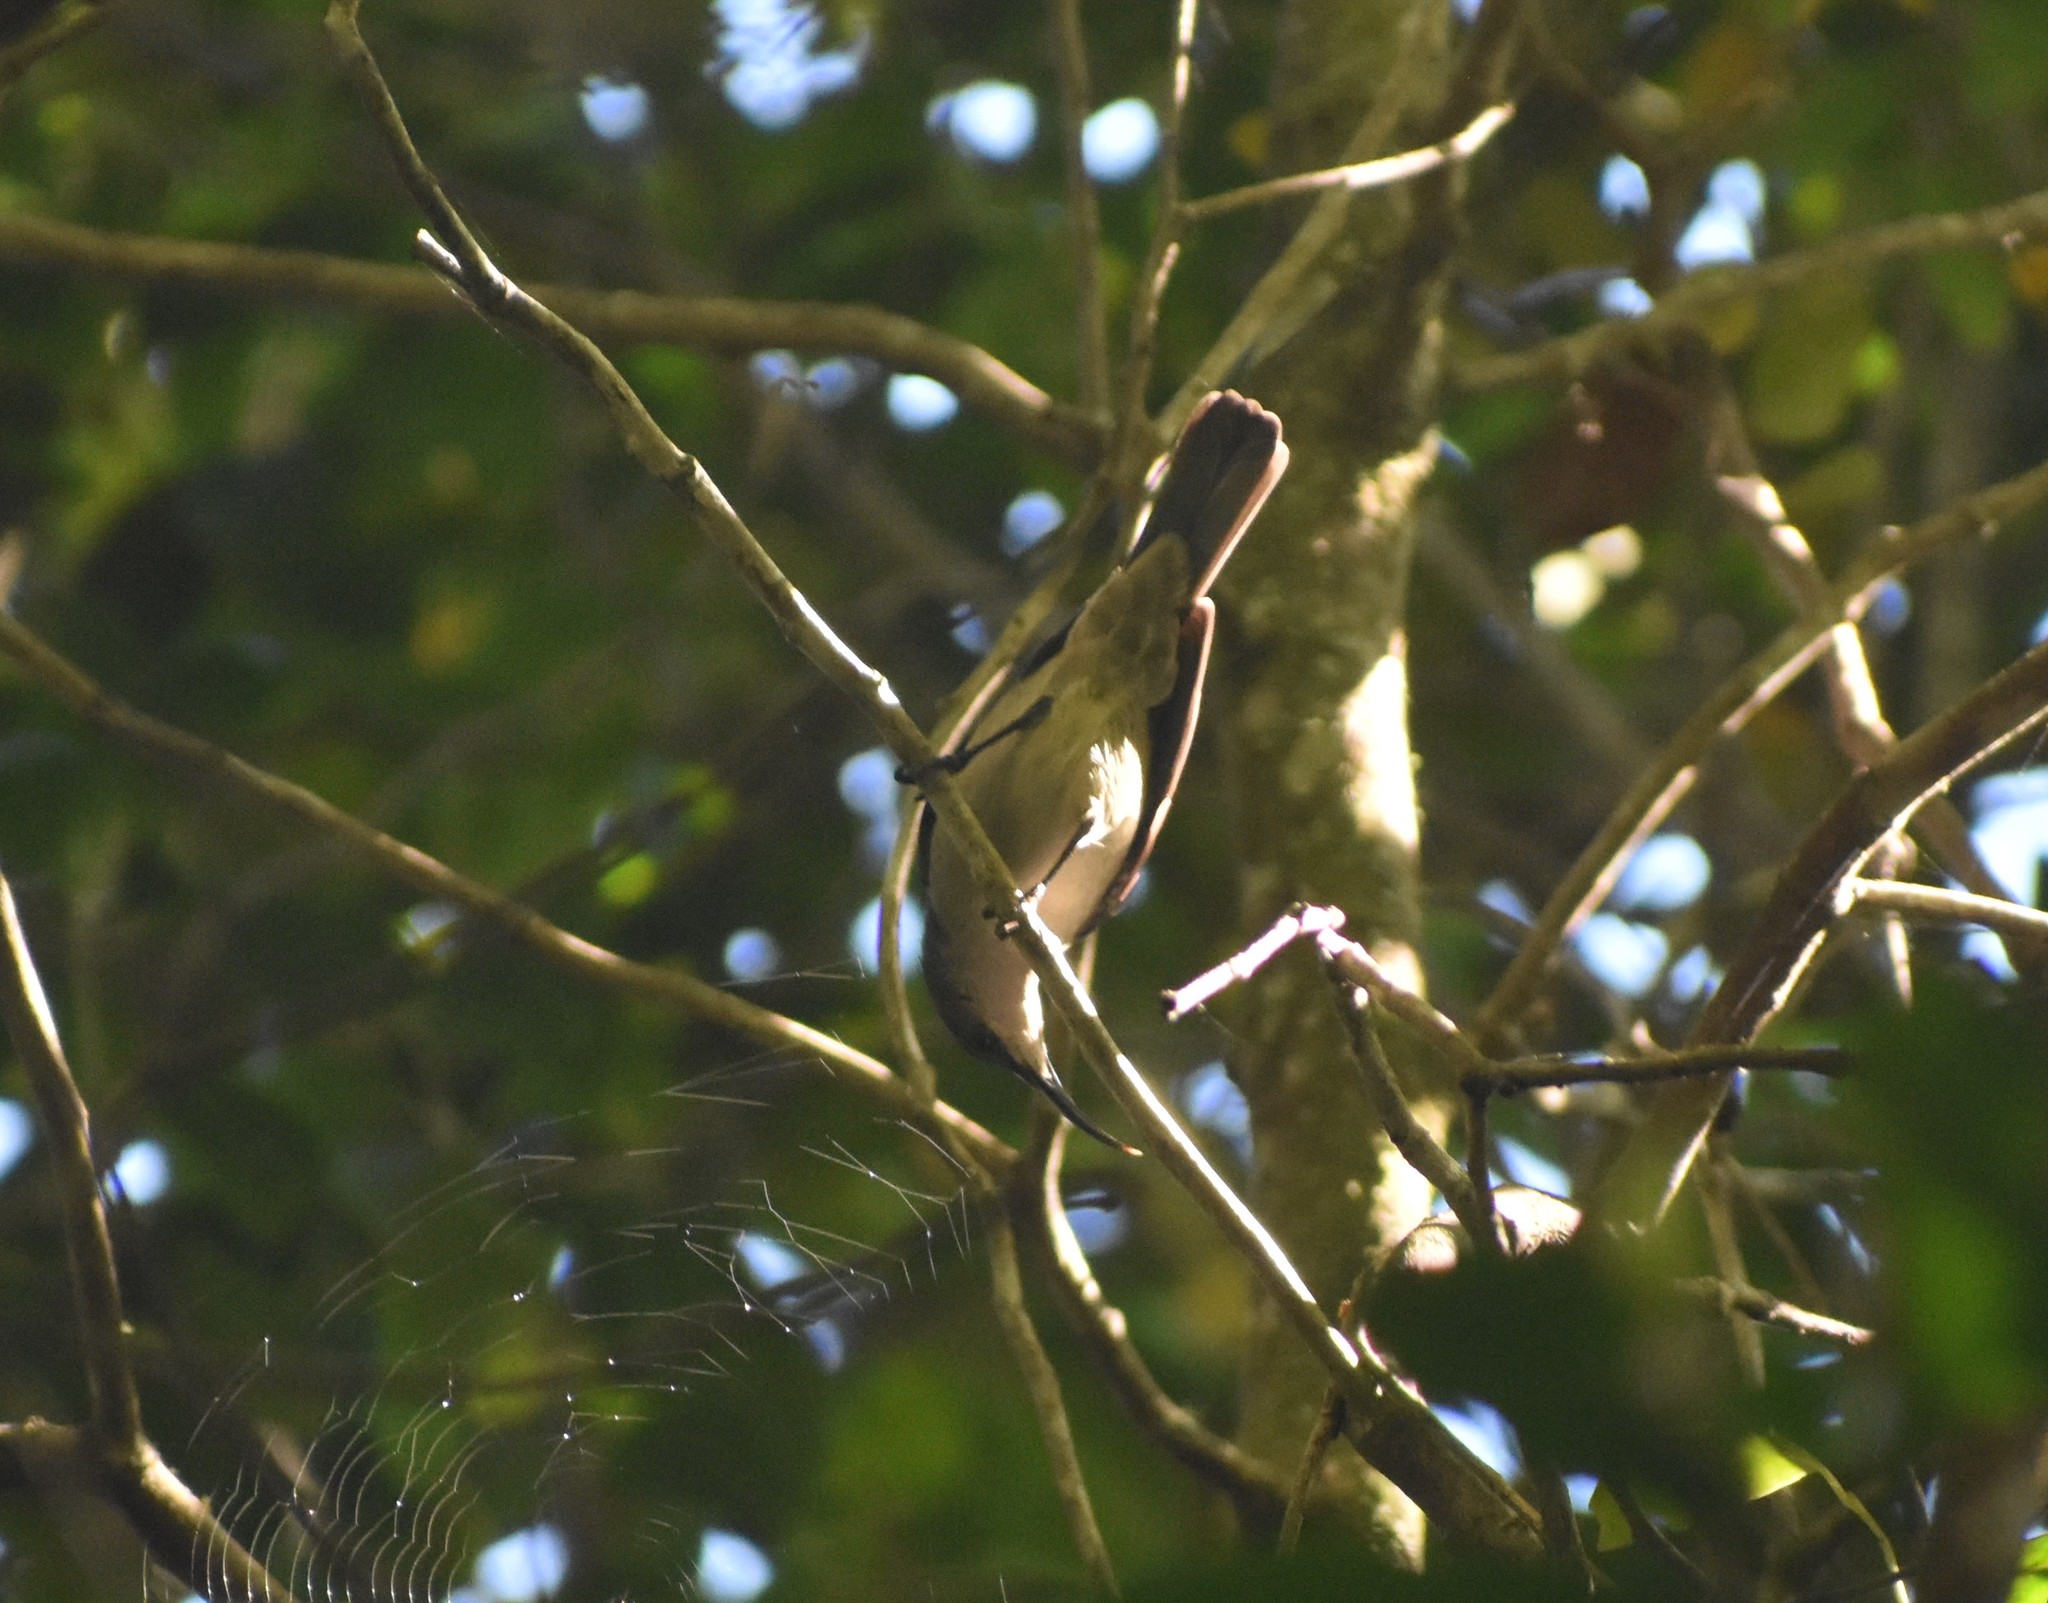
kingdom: Animalia
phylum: Chordata
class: Aves
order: Passeriformes
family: Nectariniidae
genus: Cyanomitra
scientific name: Cyanomitra veroxii
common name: Grey sunbird
